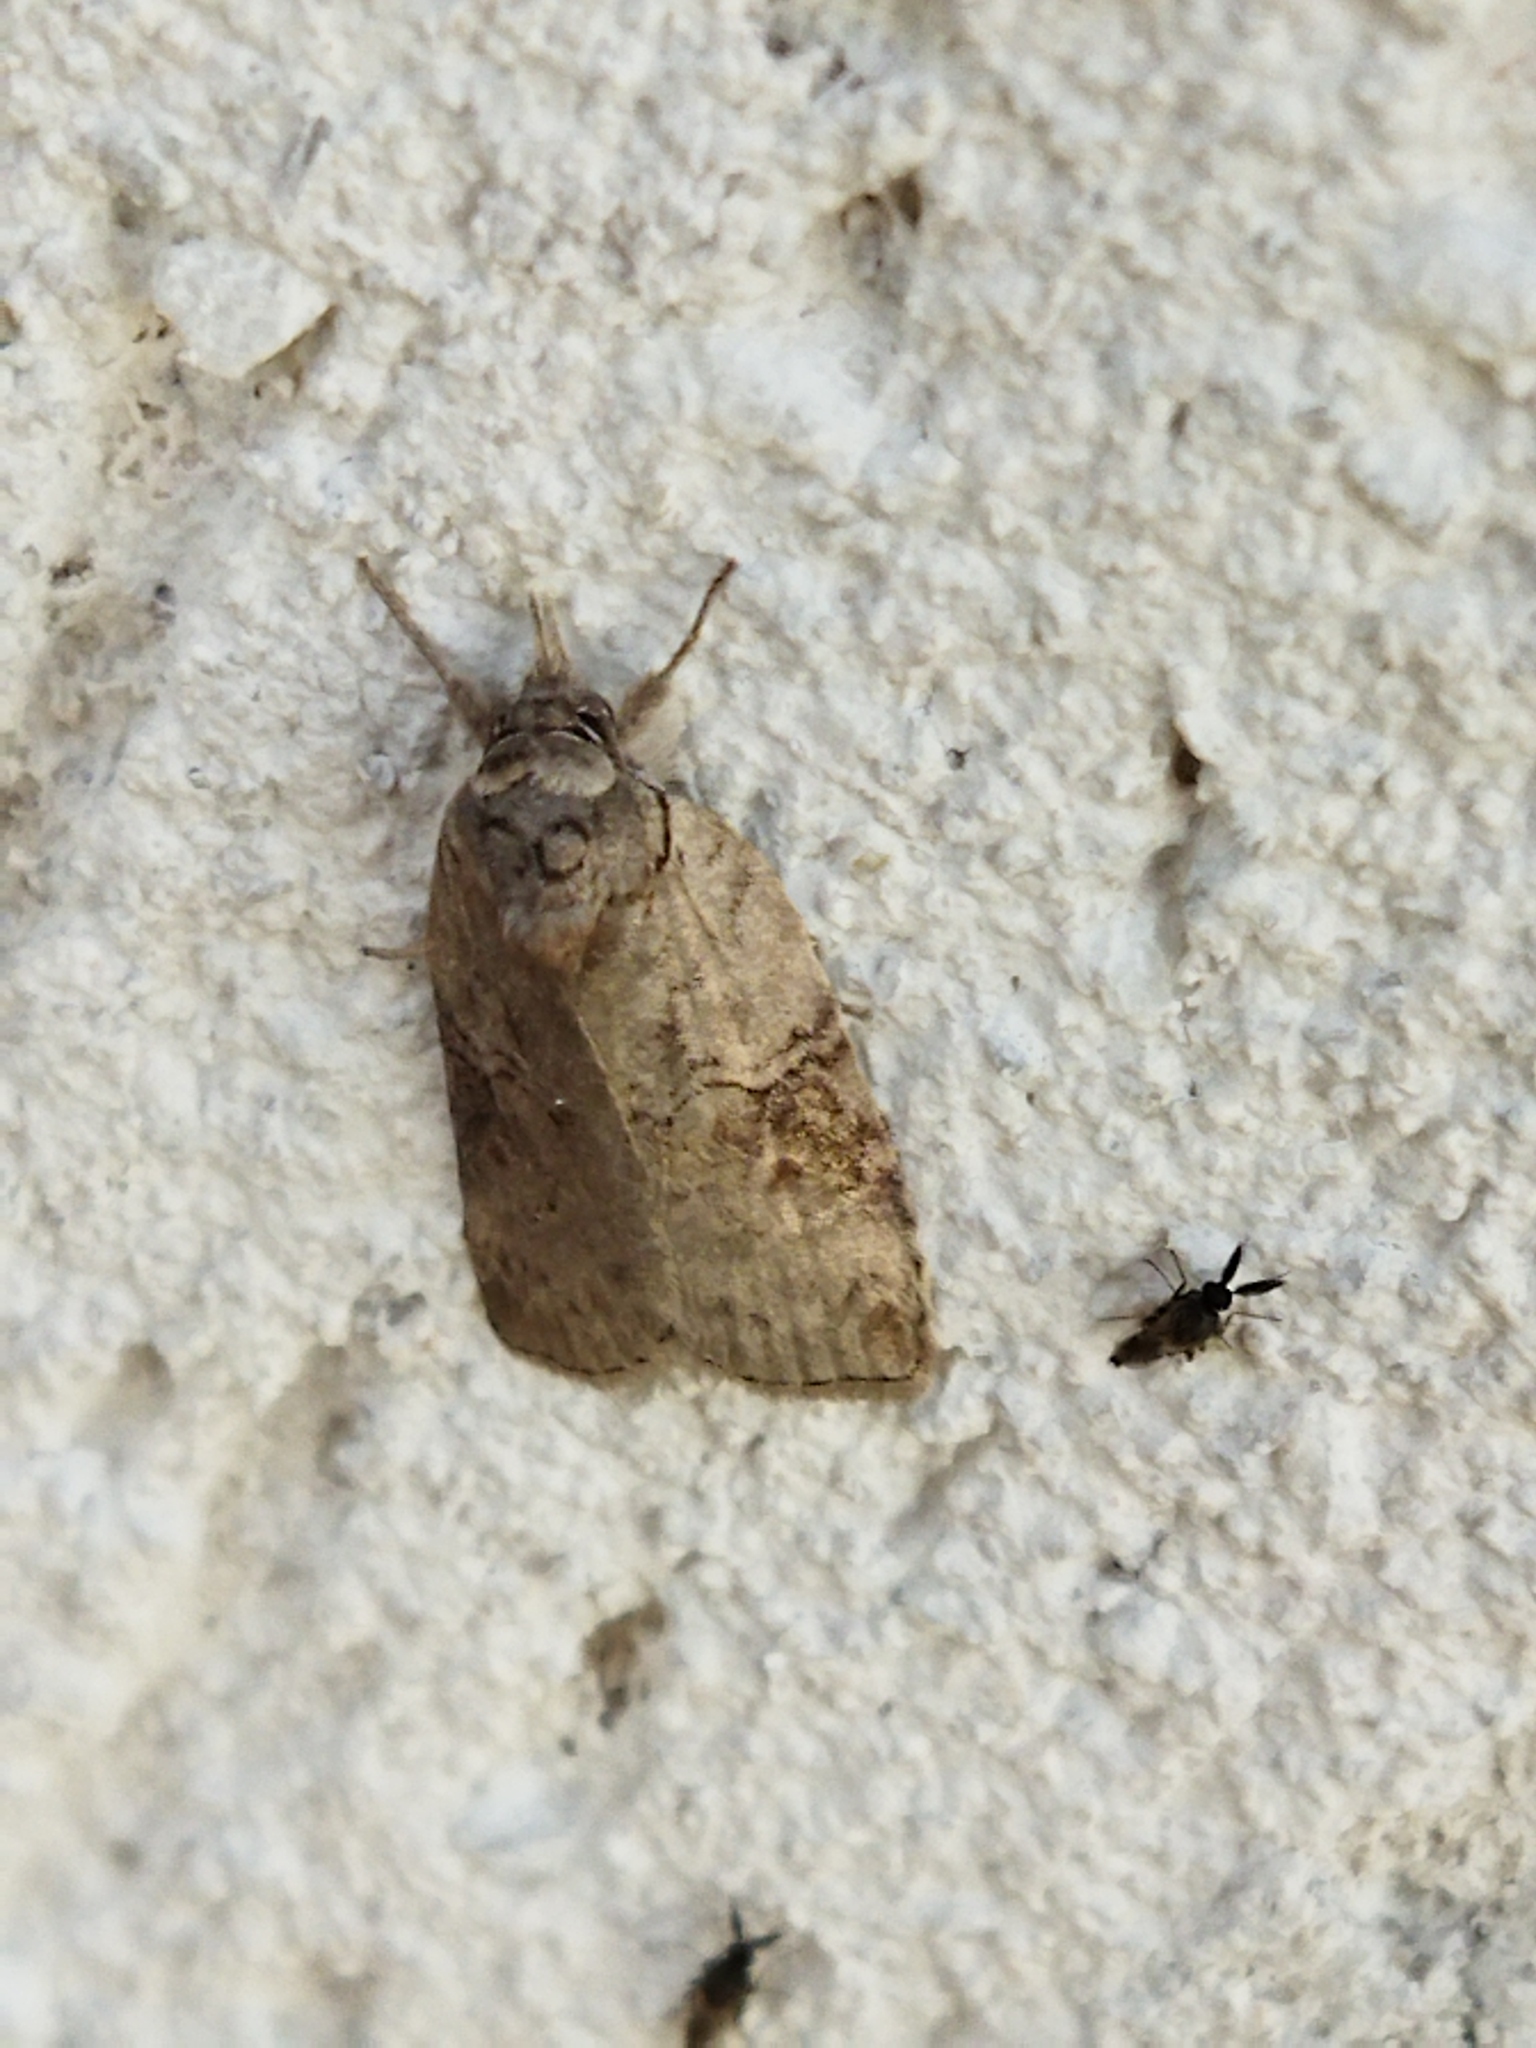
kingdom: Animalia
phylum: Arthropoda
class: Insecta
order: Lepidoptera
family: Nolidae
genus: Nycteola
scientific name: Nycteola asiatica
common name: Eastern nycteoline
